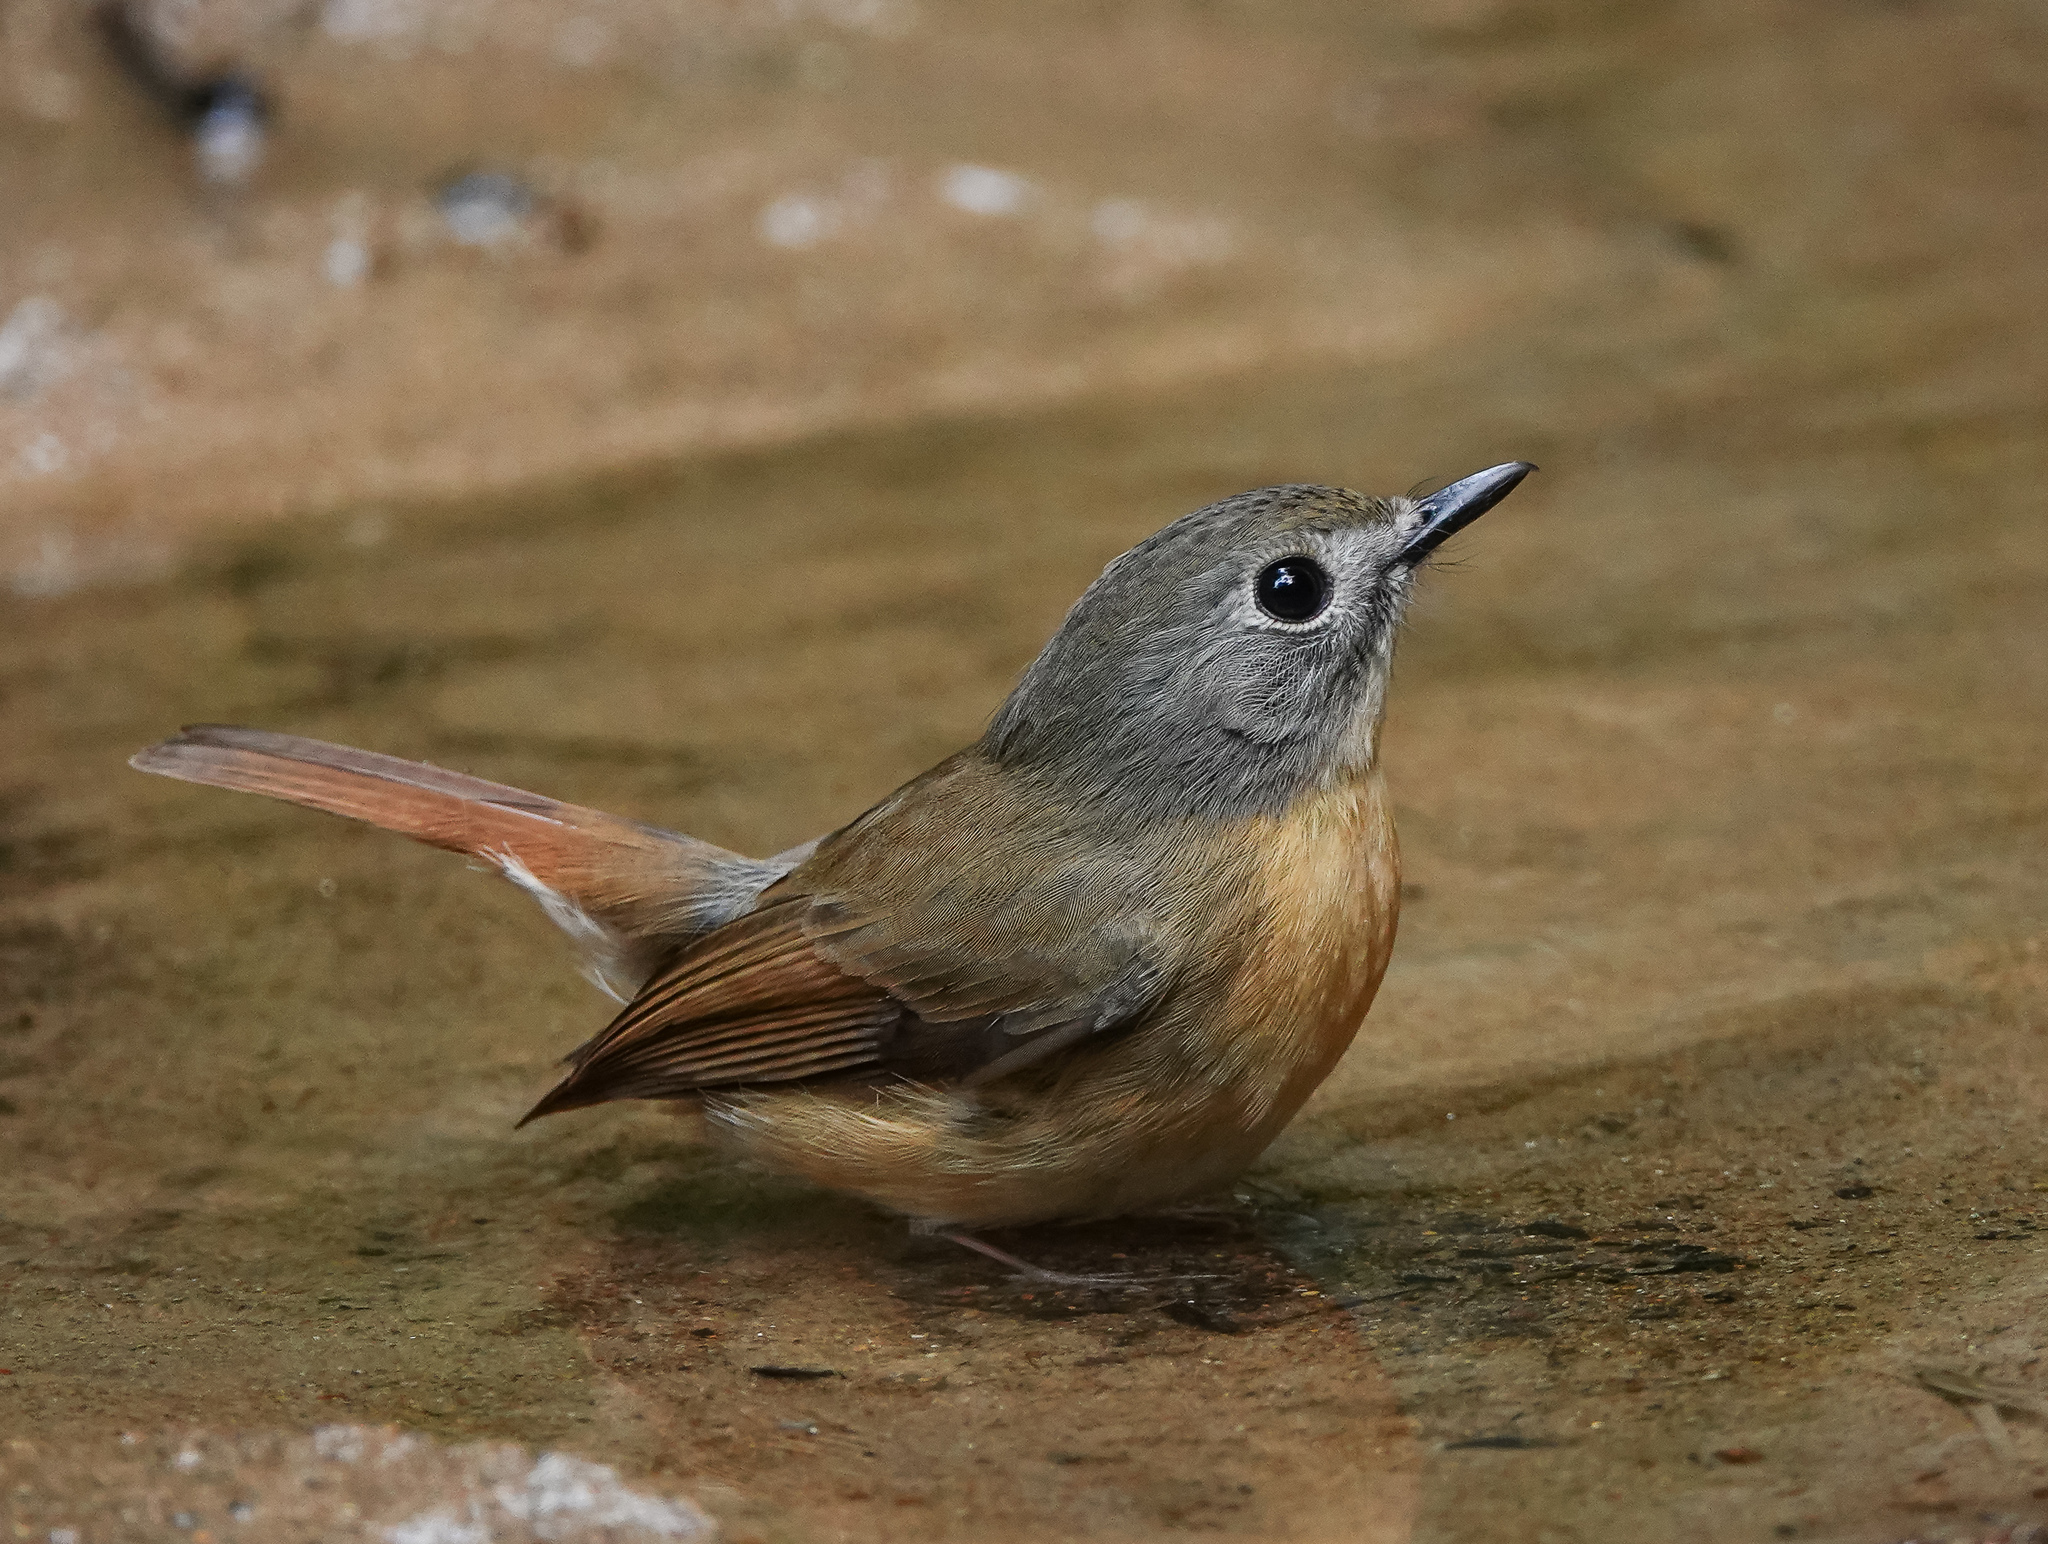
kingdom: Animalia
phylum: Chordata
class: Aves
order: Passeriformes
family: Muscicapidae
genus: Cyornis
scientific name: Cyornis poliogenys
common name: Pale-chinned blue flycatcher
